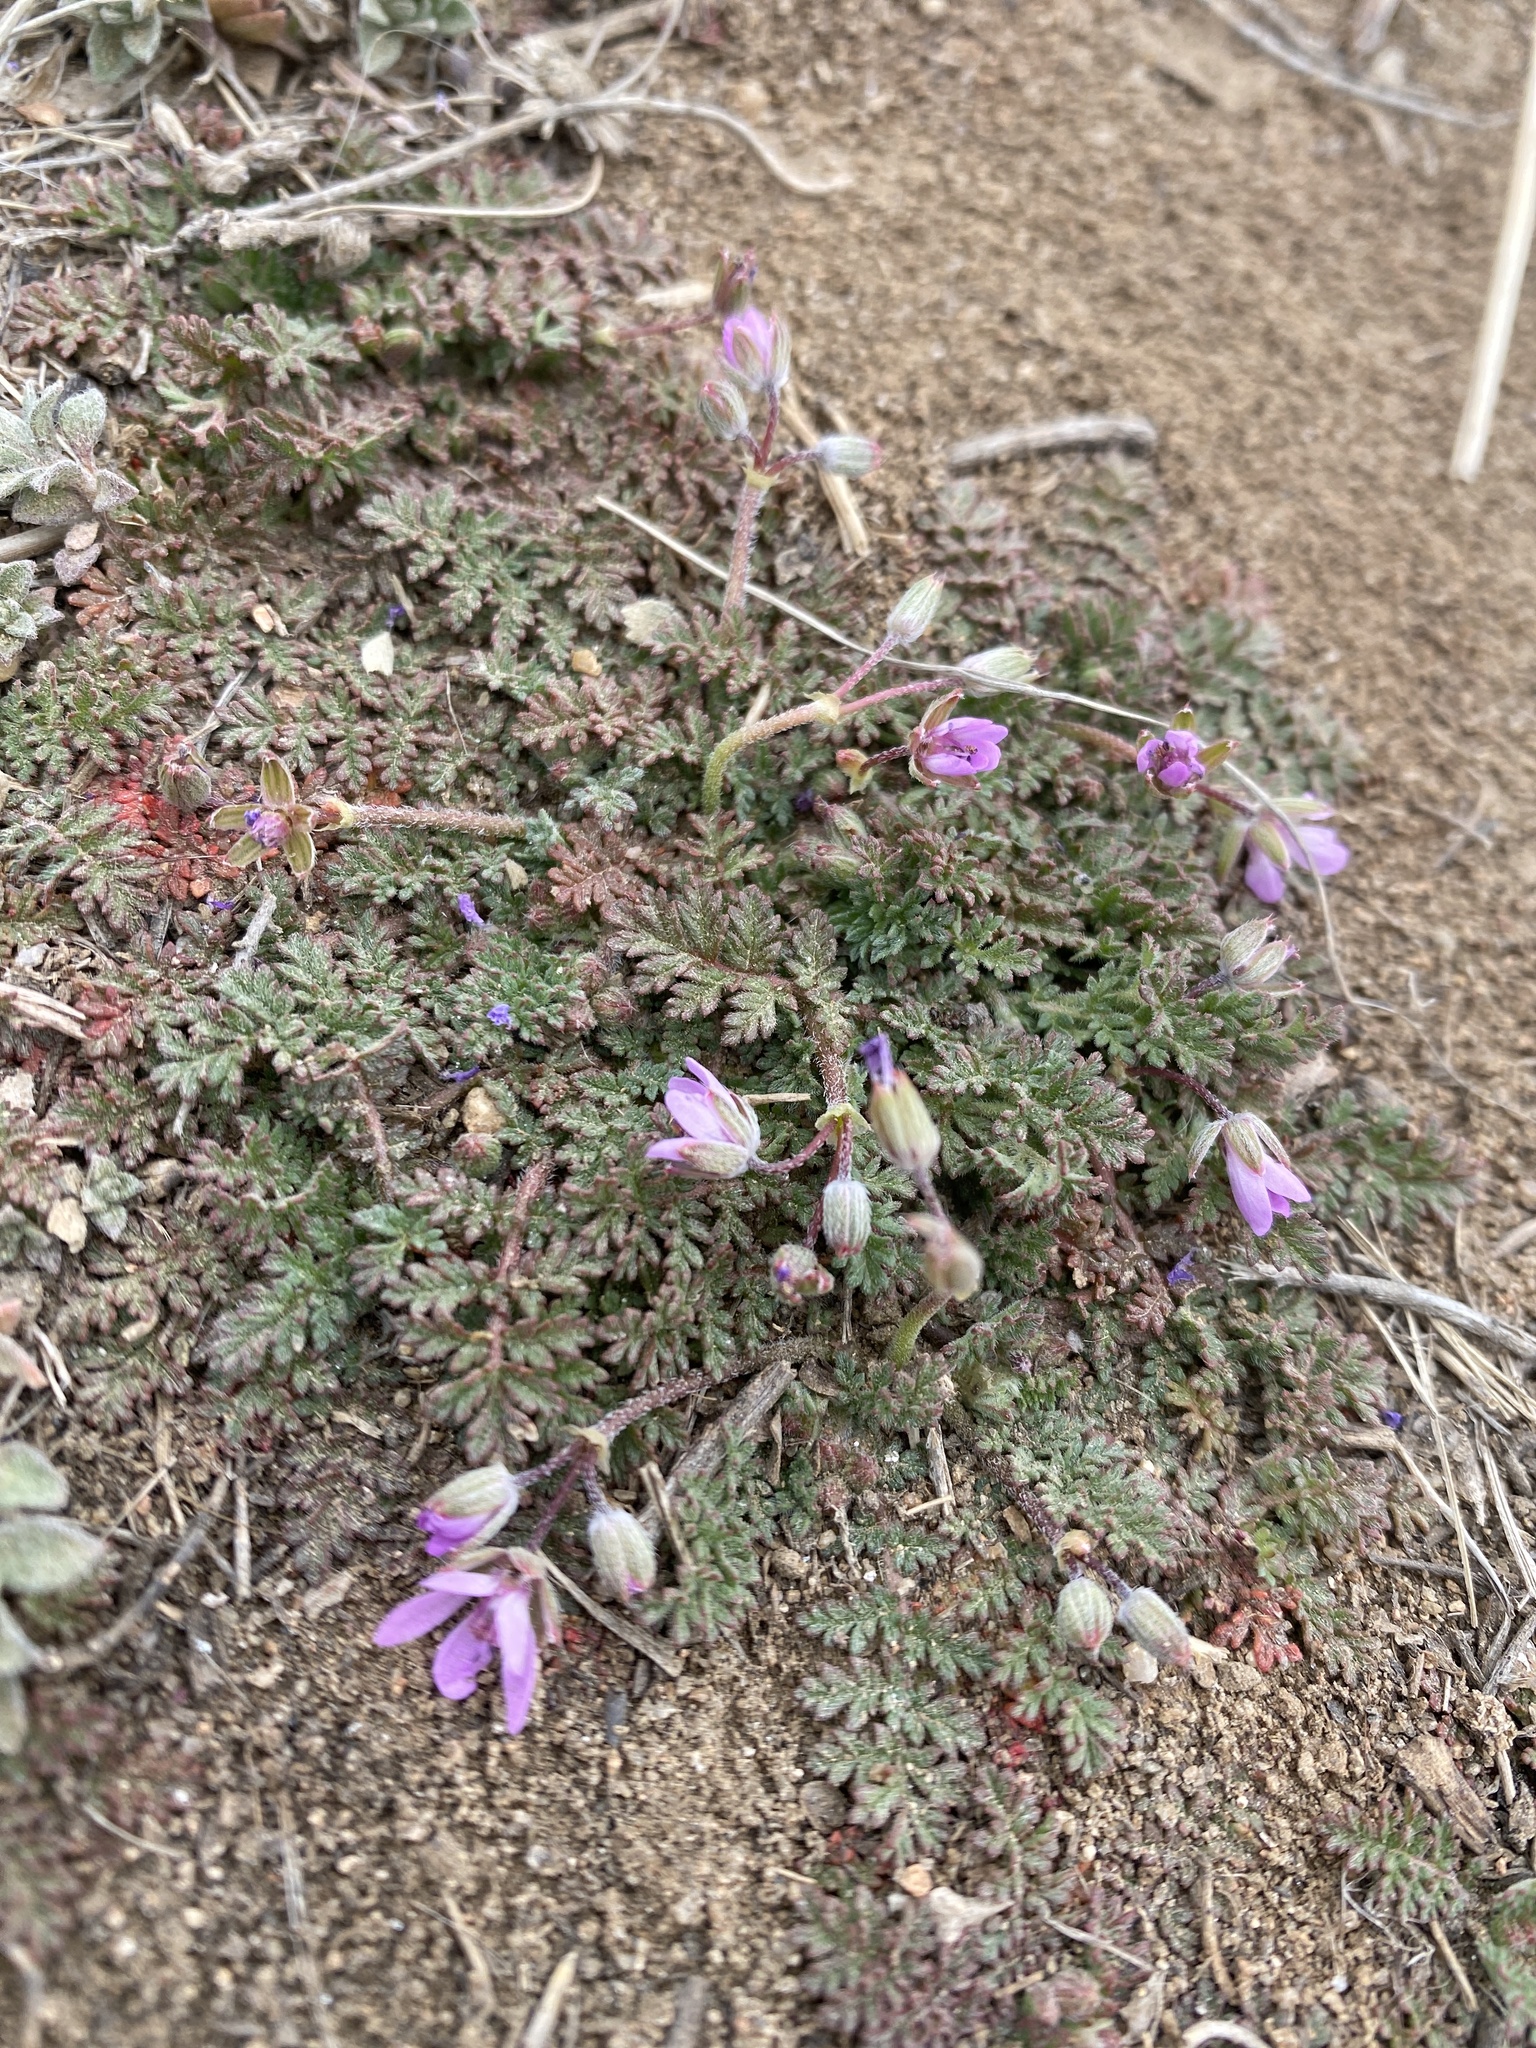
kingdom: Plantae
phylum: Tracheophyta
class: Magnoliopsida
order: Geraniales
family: Geraniaceae
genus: Erodium
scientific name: Erodium cicutarium
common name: Common stork's-bill
